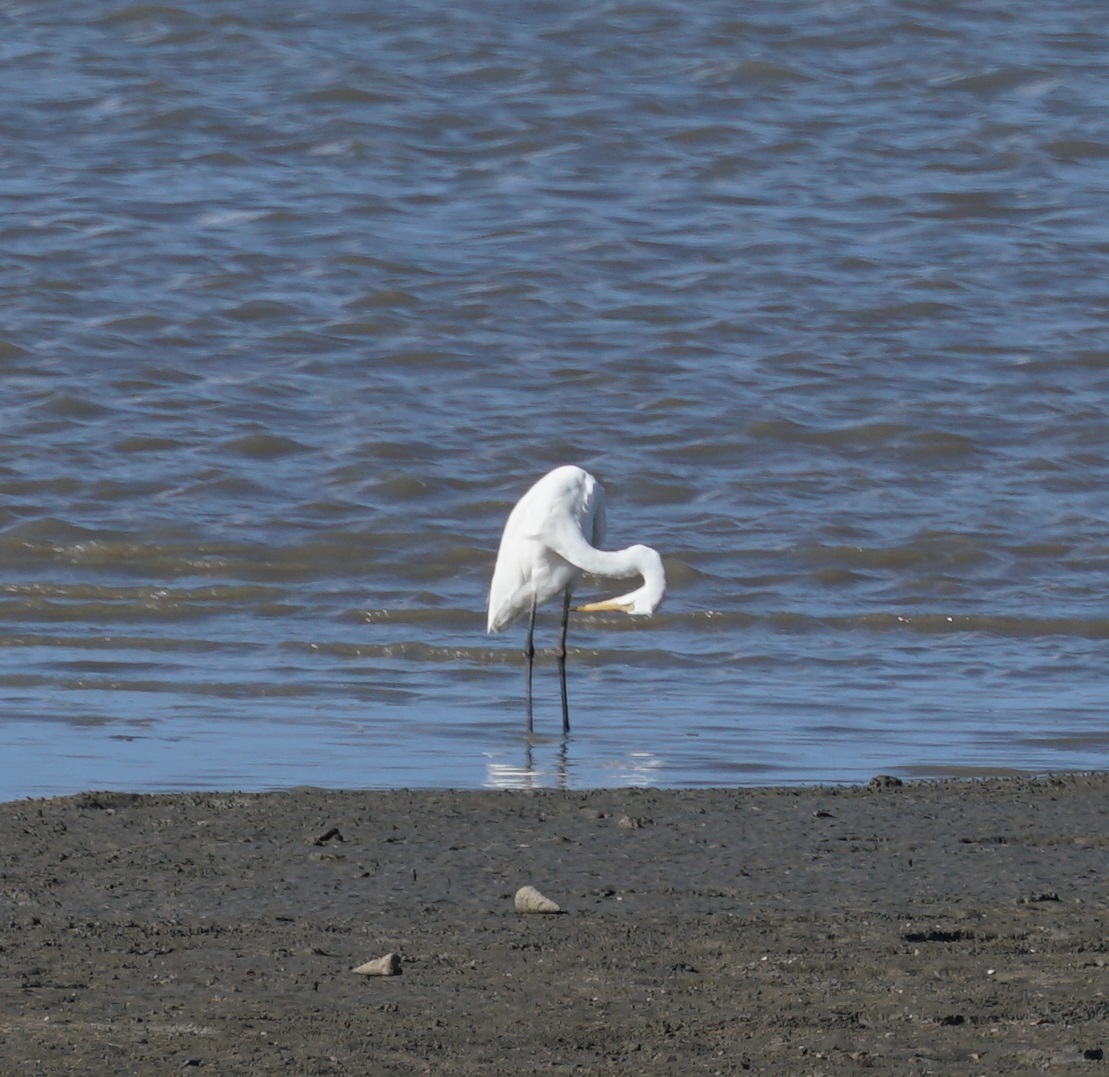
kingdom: Animalia
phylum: Chordata
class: Aves
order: Pelecaniformes
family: Ardeidae
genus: Ardea
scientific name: Ardea modesta
